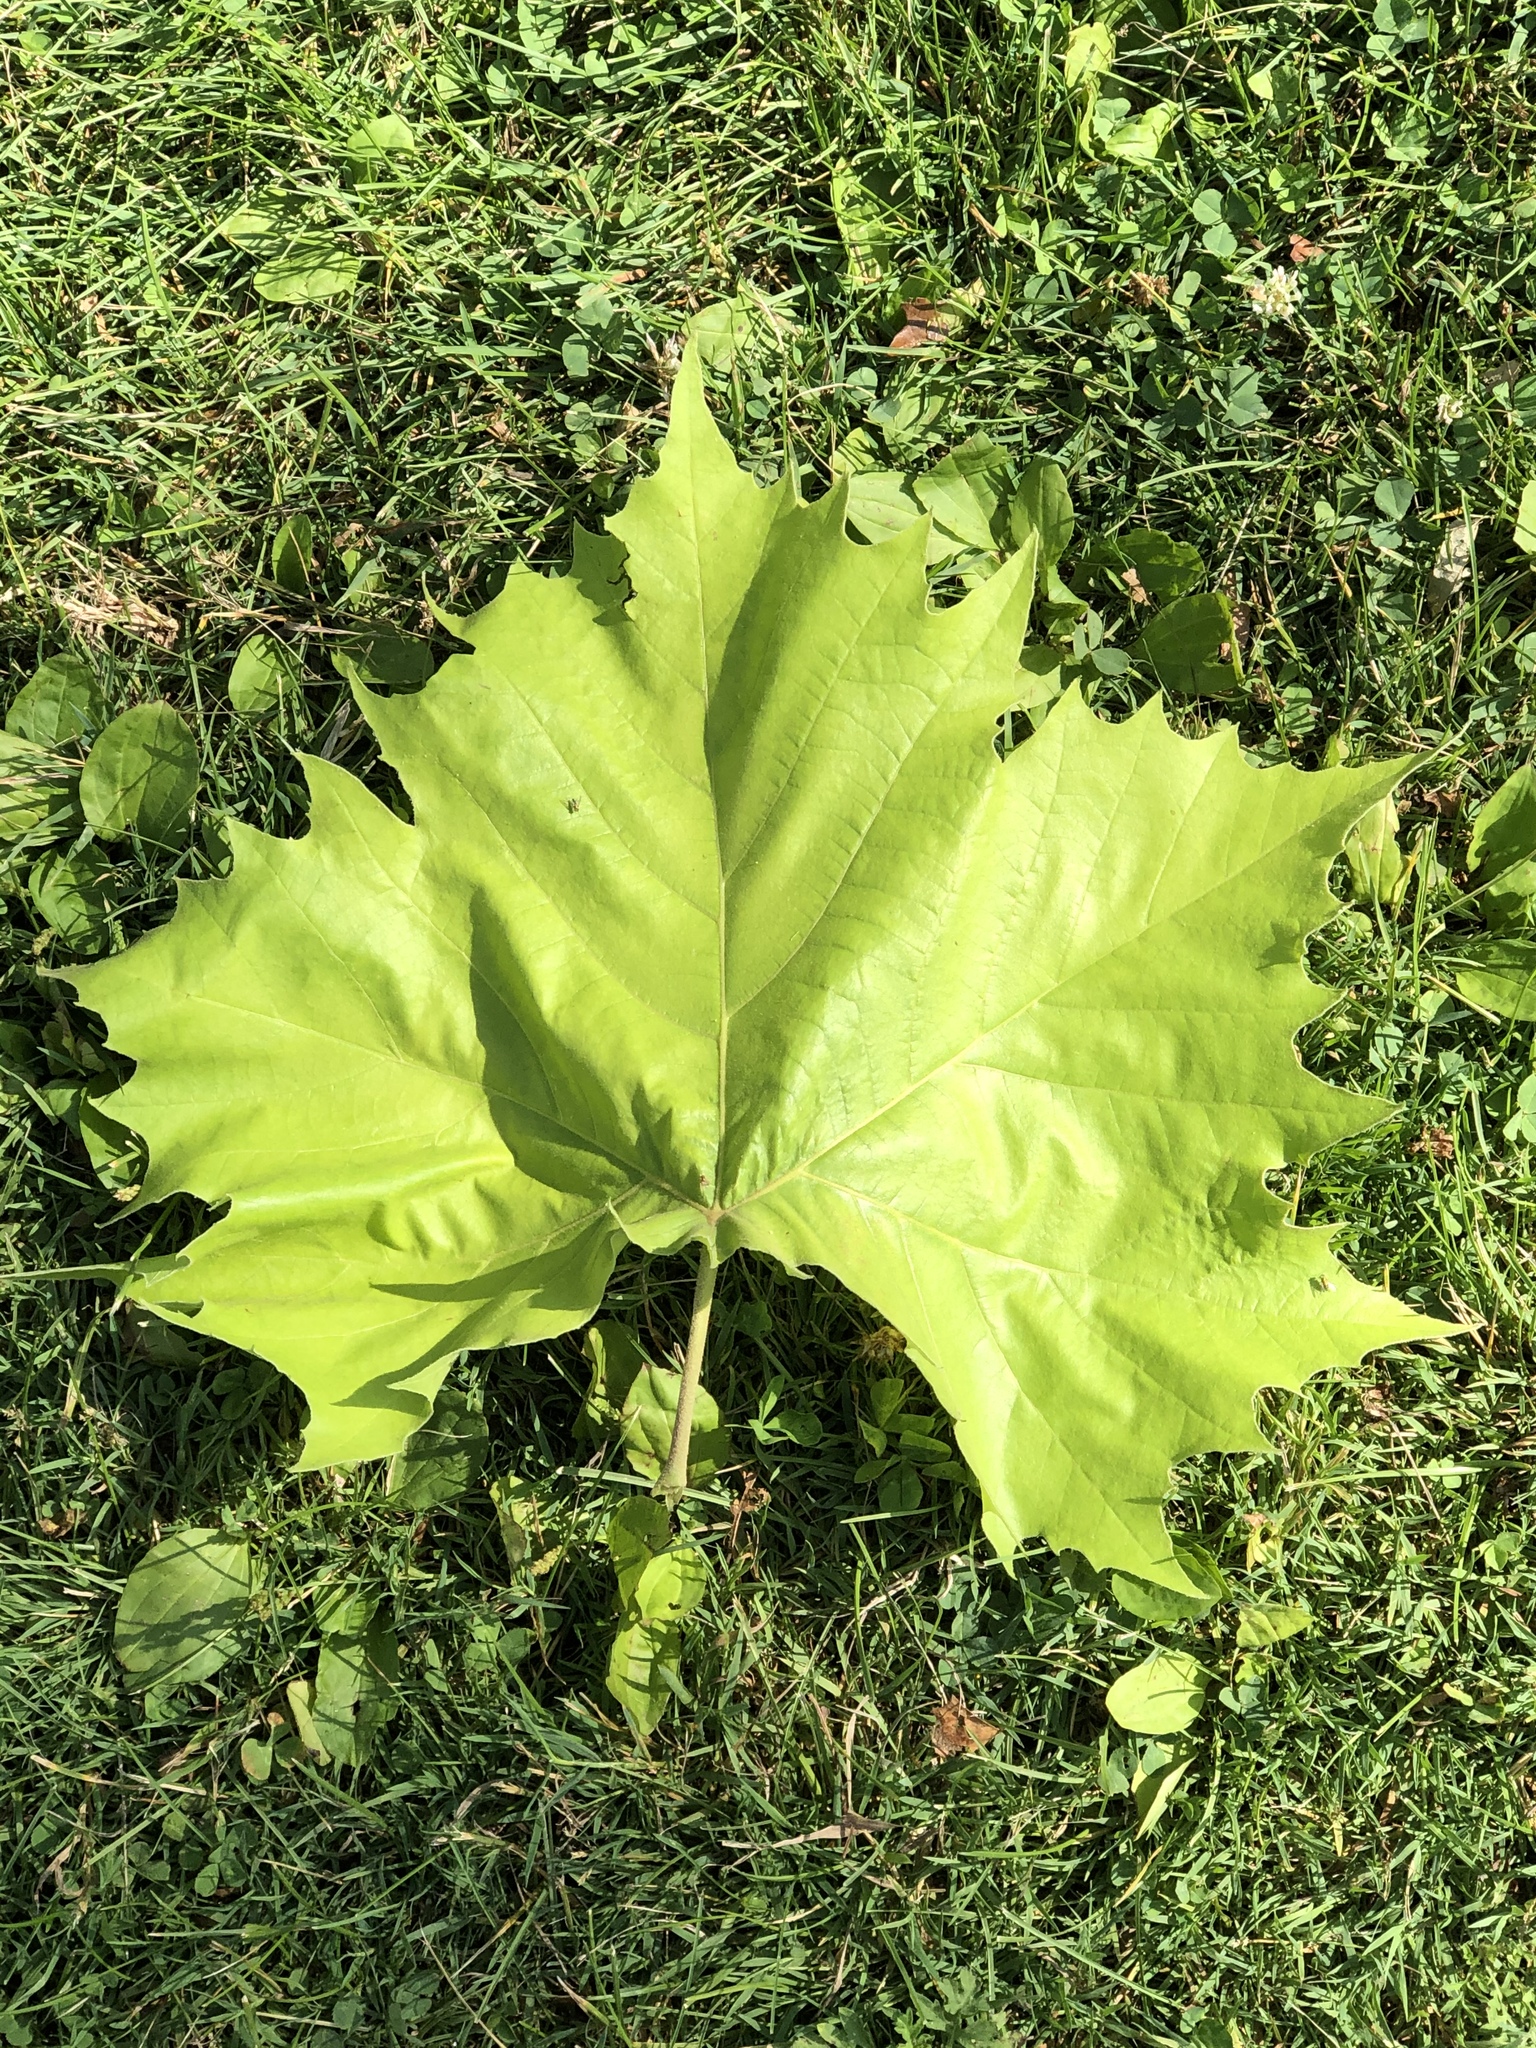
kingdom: Plantae
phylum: Tracheophyta
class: Magnoliopsida
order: Proteales
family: Platanaceae
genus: Platanus
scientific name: Platanus occidentalis
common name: American sycamore
